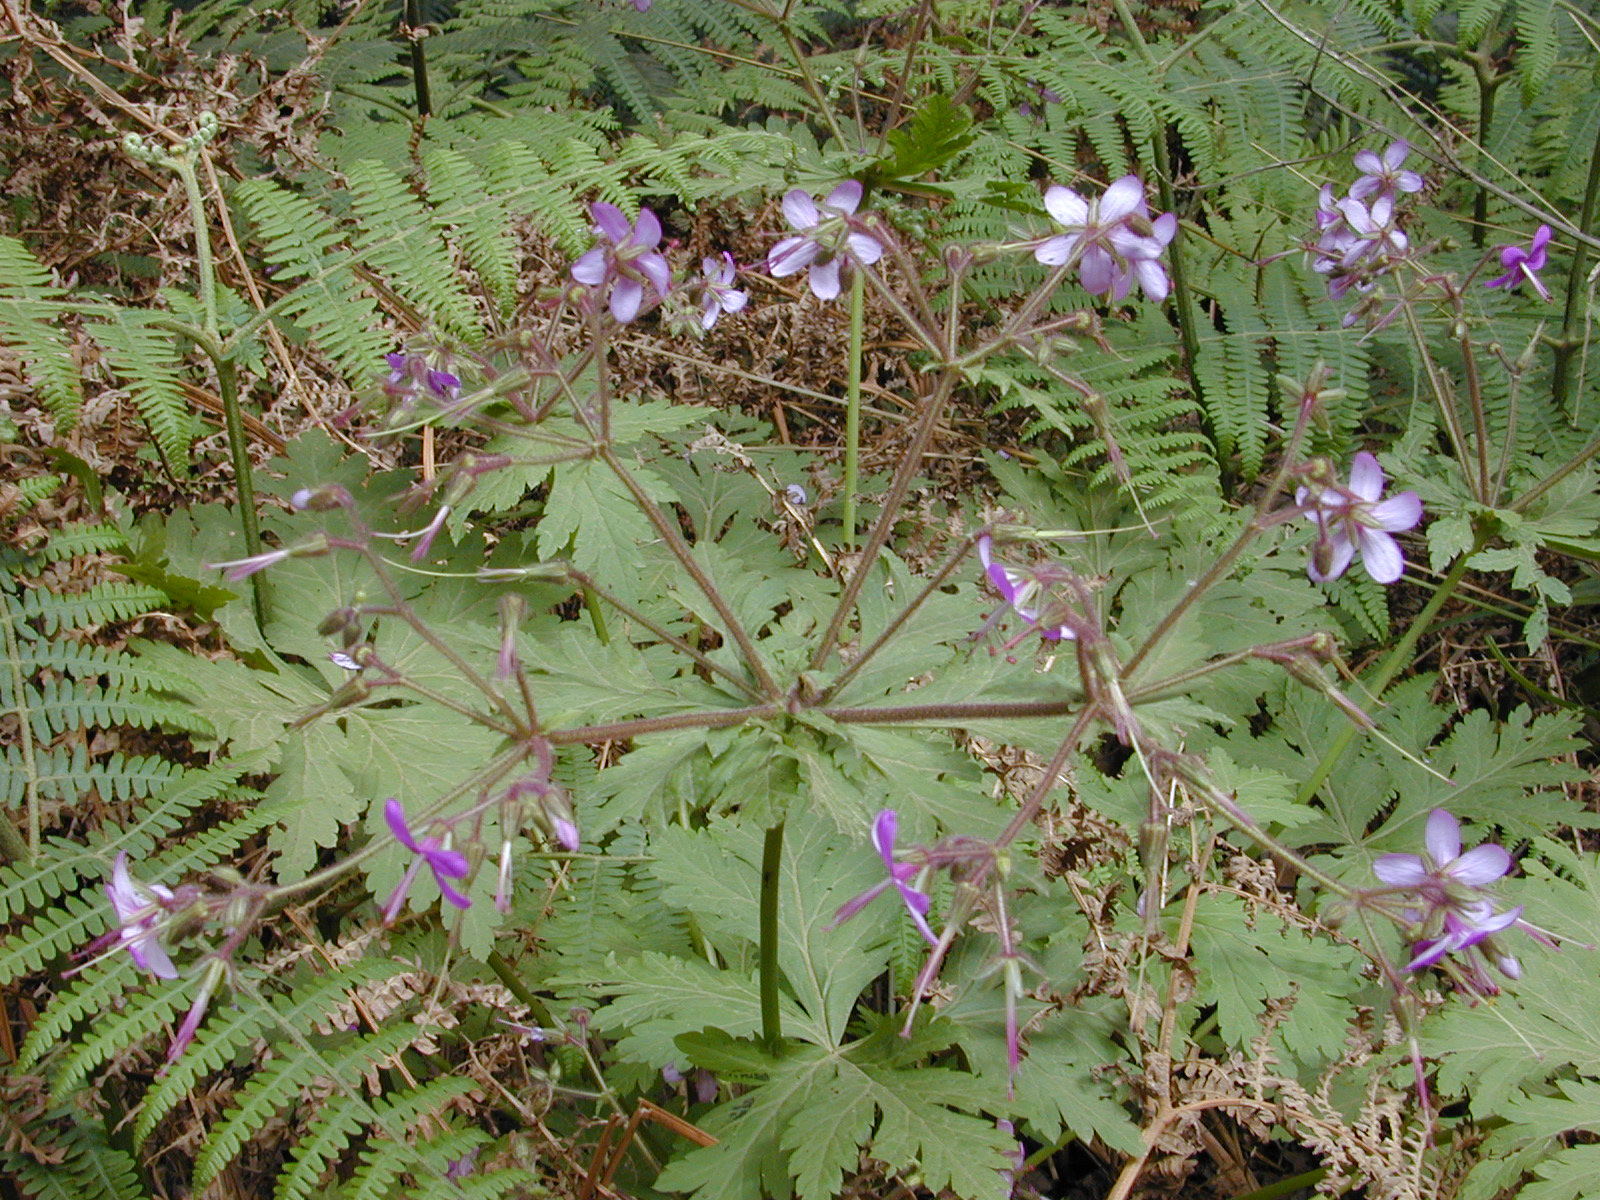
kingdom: Plantae
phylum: Tracheophyta
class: Magnoliopsida
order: Geraniales
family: Geraniaceae
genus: Geranium
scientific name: Geranium reuteri
